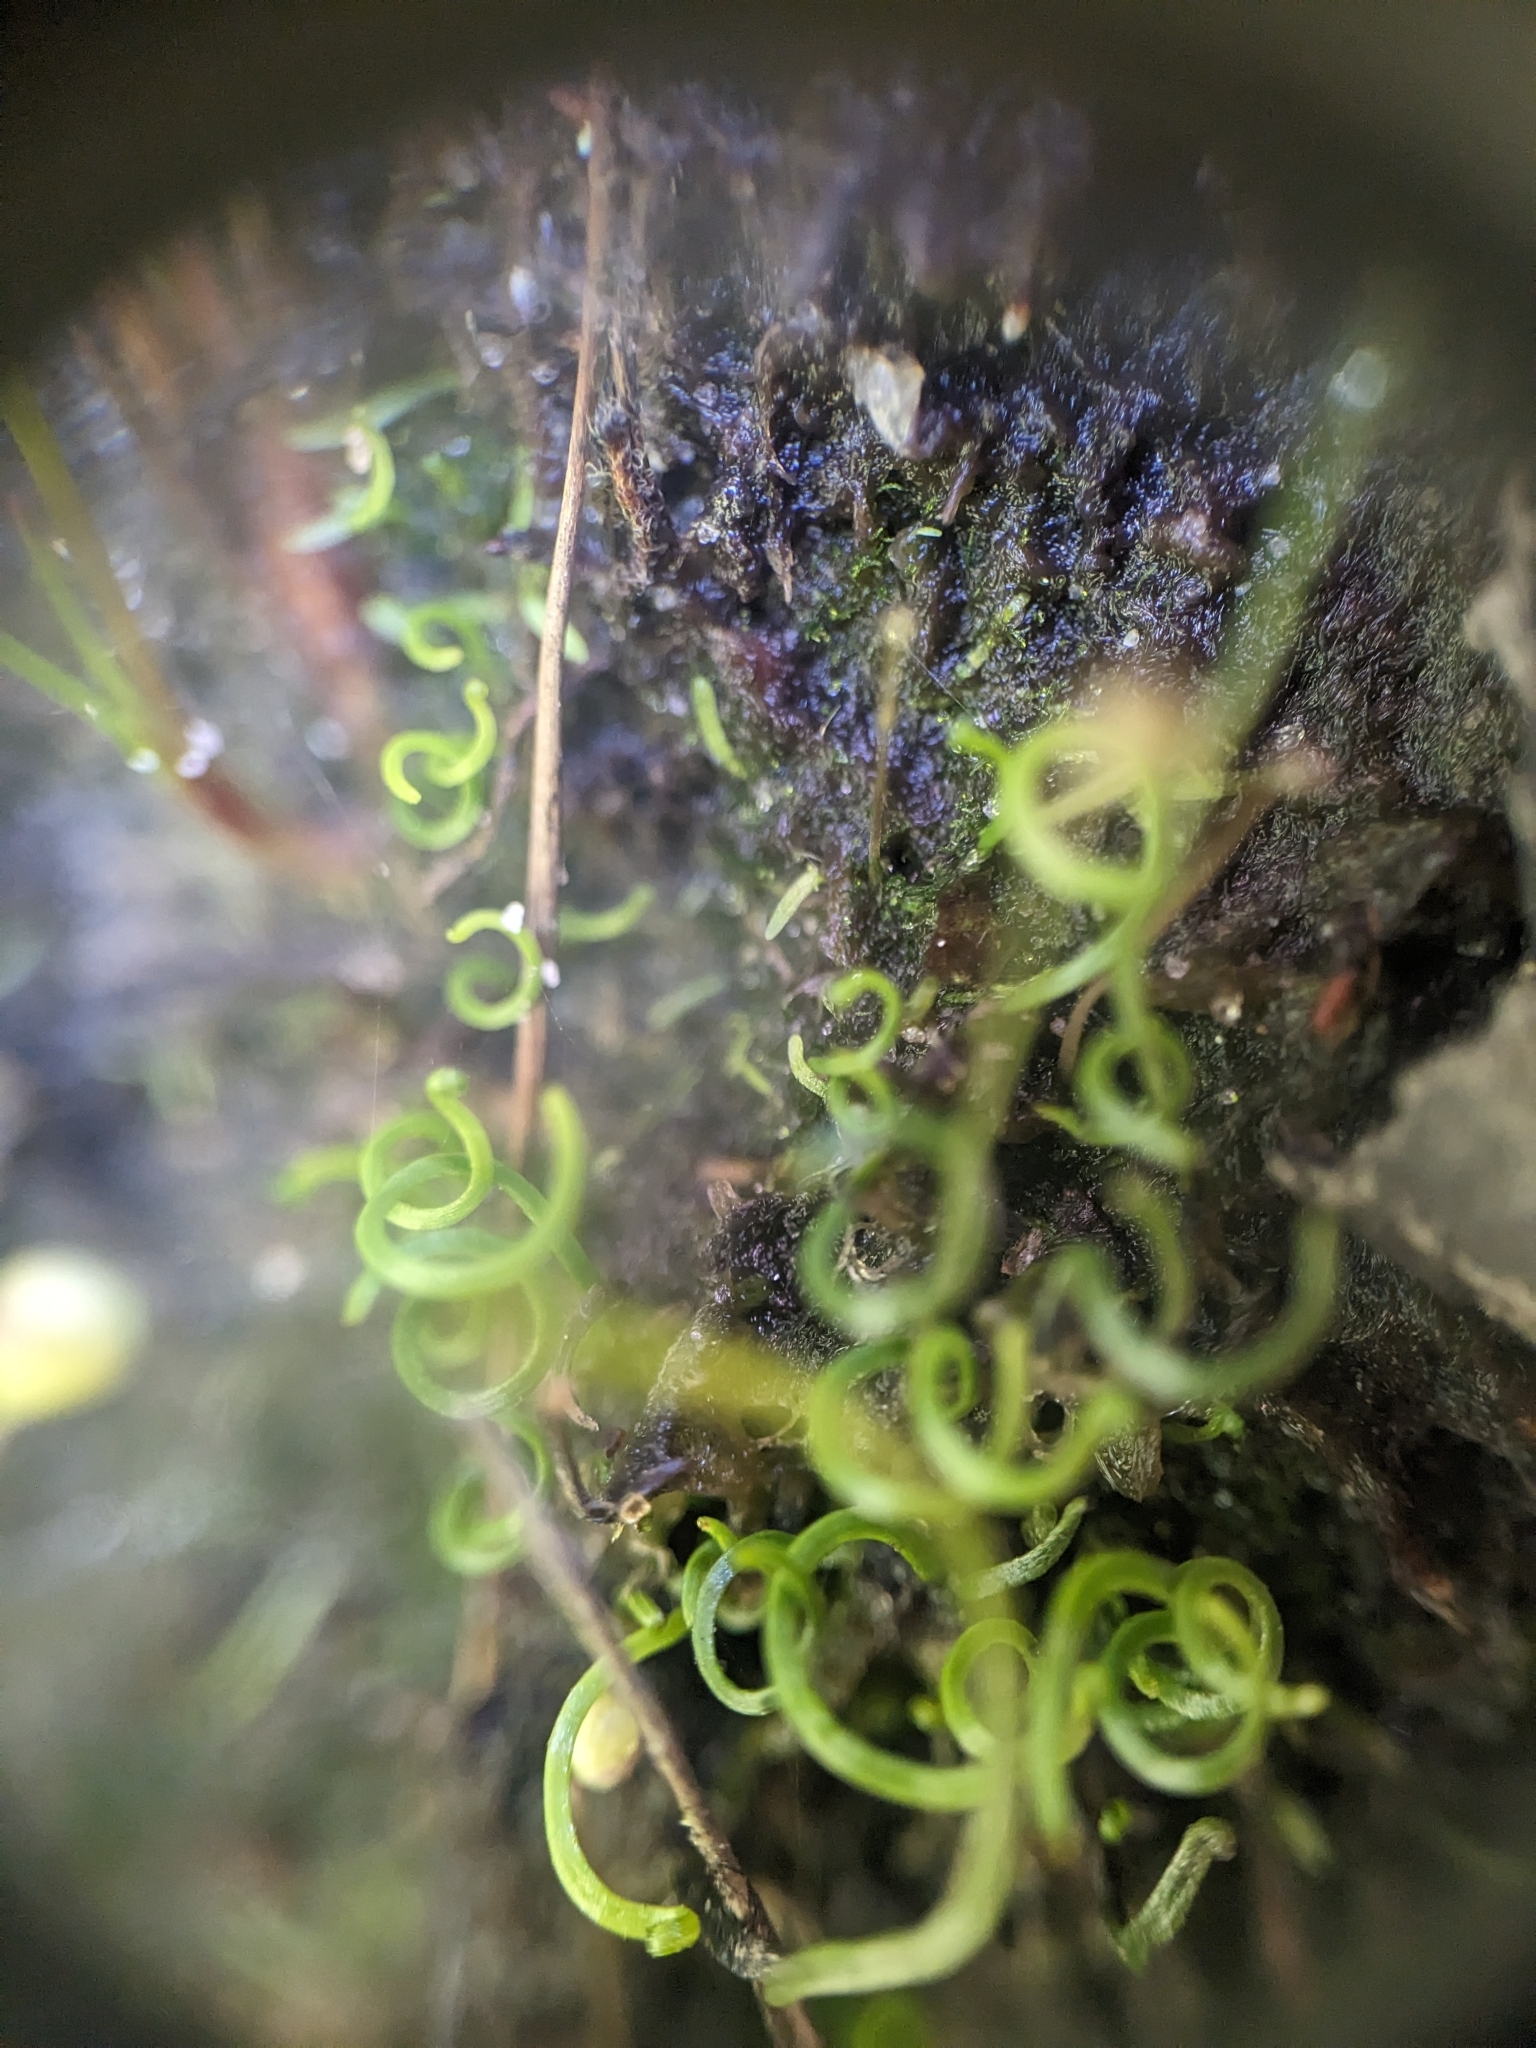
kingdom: Plantae
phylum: Tracheophyta
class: Polypodiopsida
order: Schizaeales
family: Schizaeaceae
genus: Schizaea
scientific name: Schizaea pusilla
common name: Curly-grass fern
